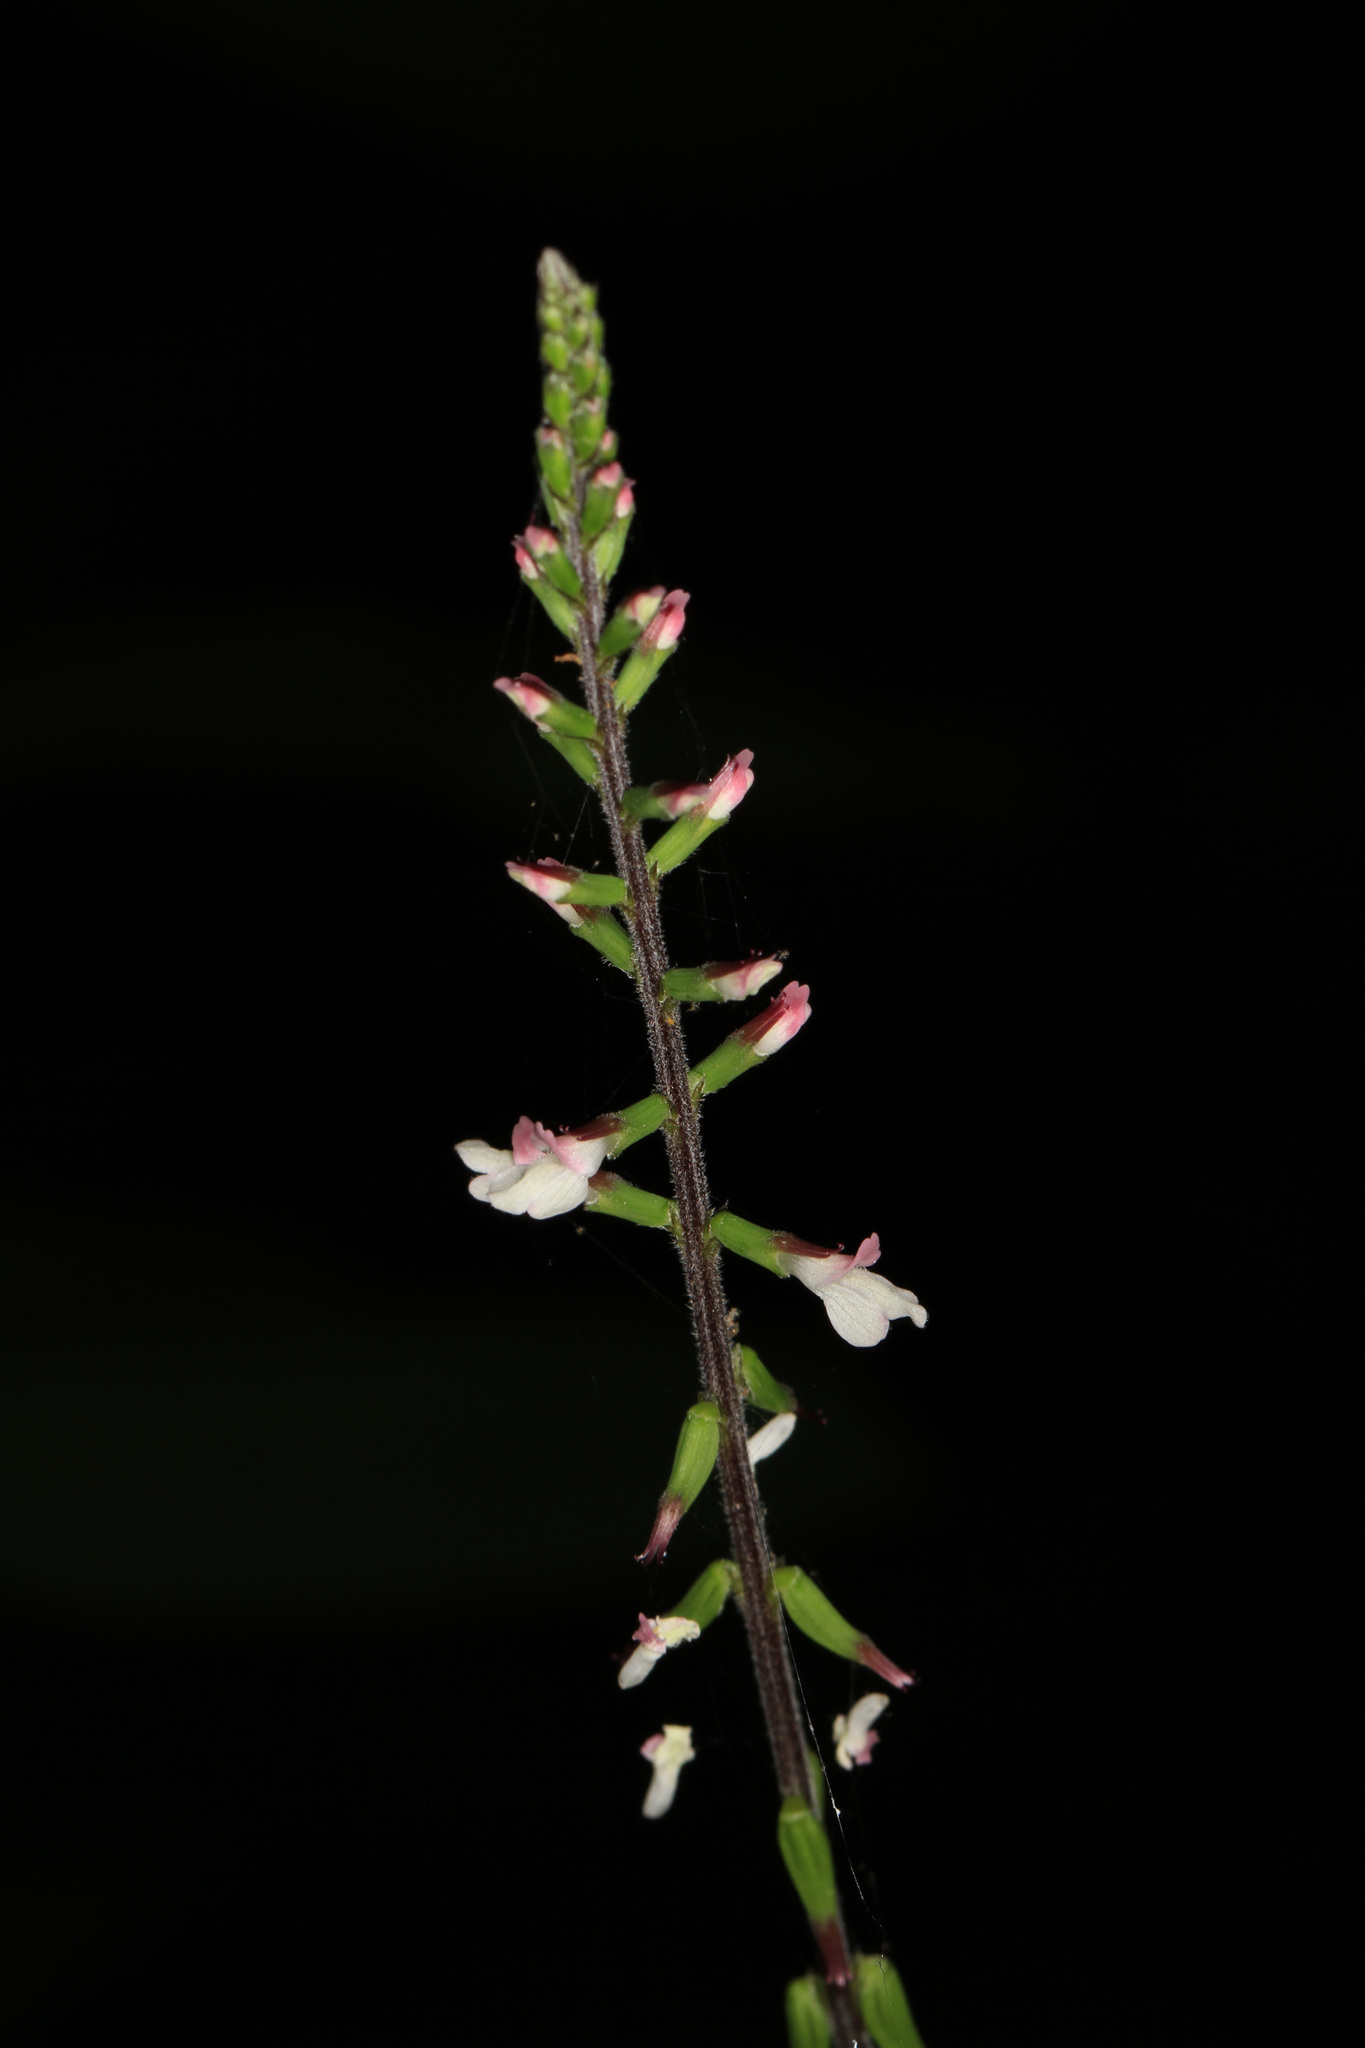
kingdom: Plantae
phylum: Tracheophyta
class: Magnoliopsida
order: Lamiales
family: Phrymaceae
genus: Phryma
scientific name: Phryma leptostachya
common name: American lopseed
